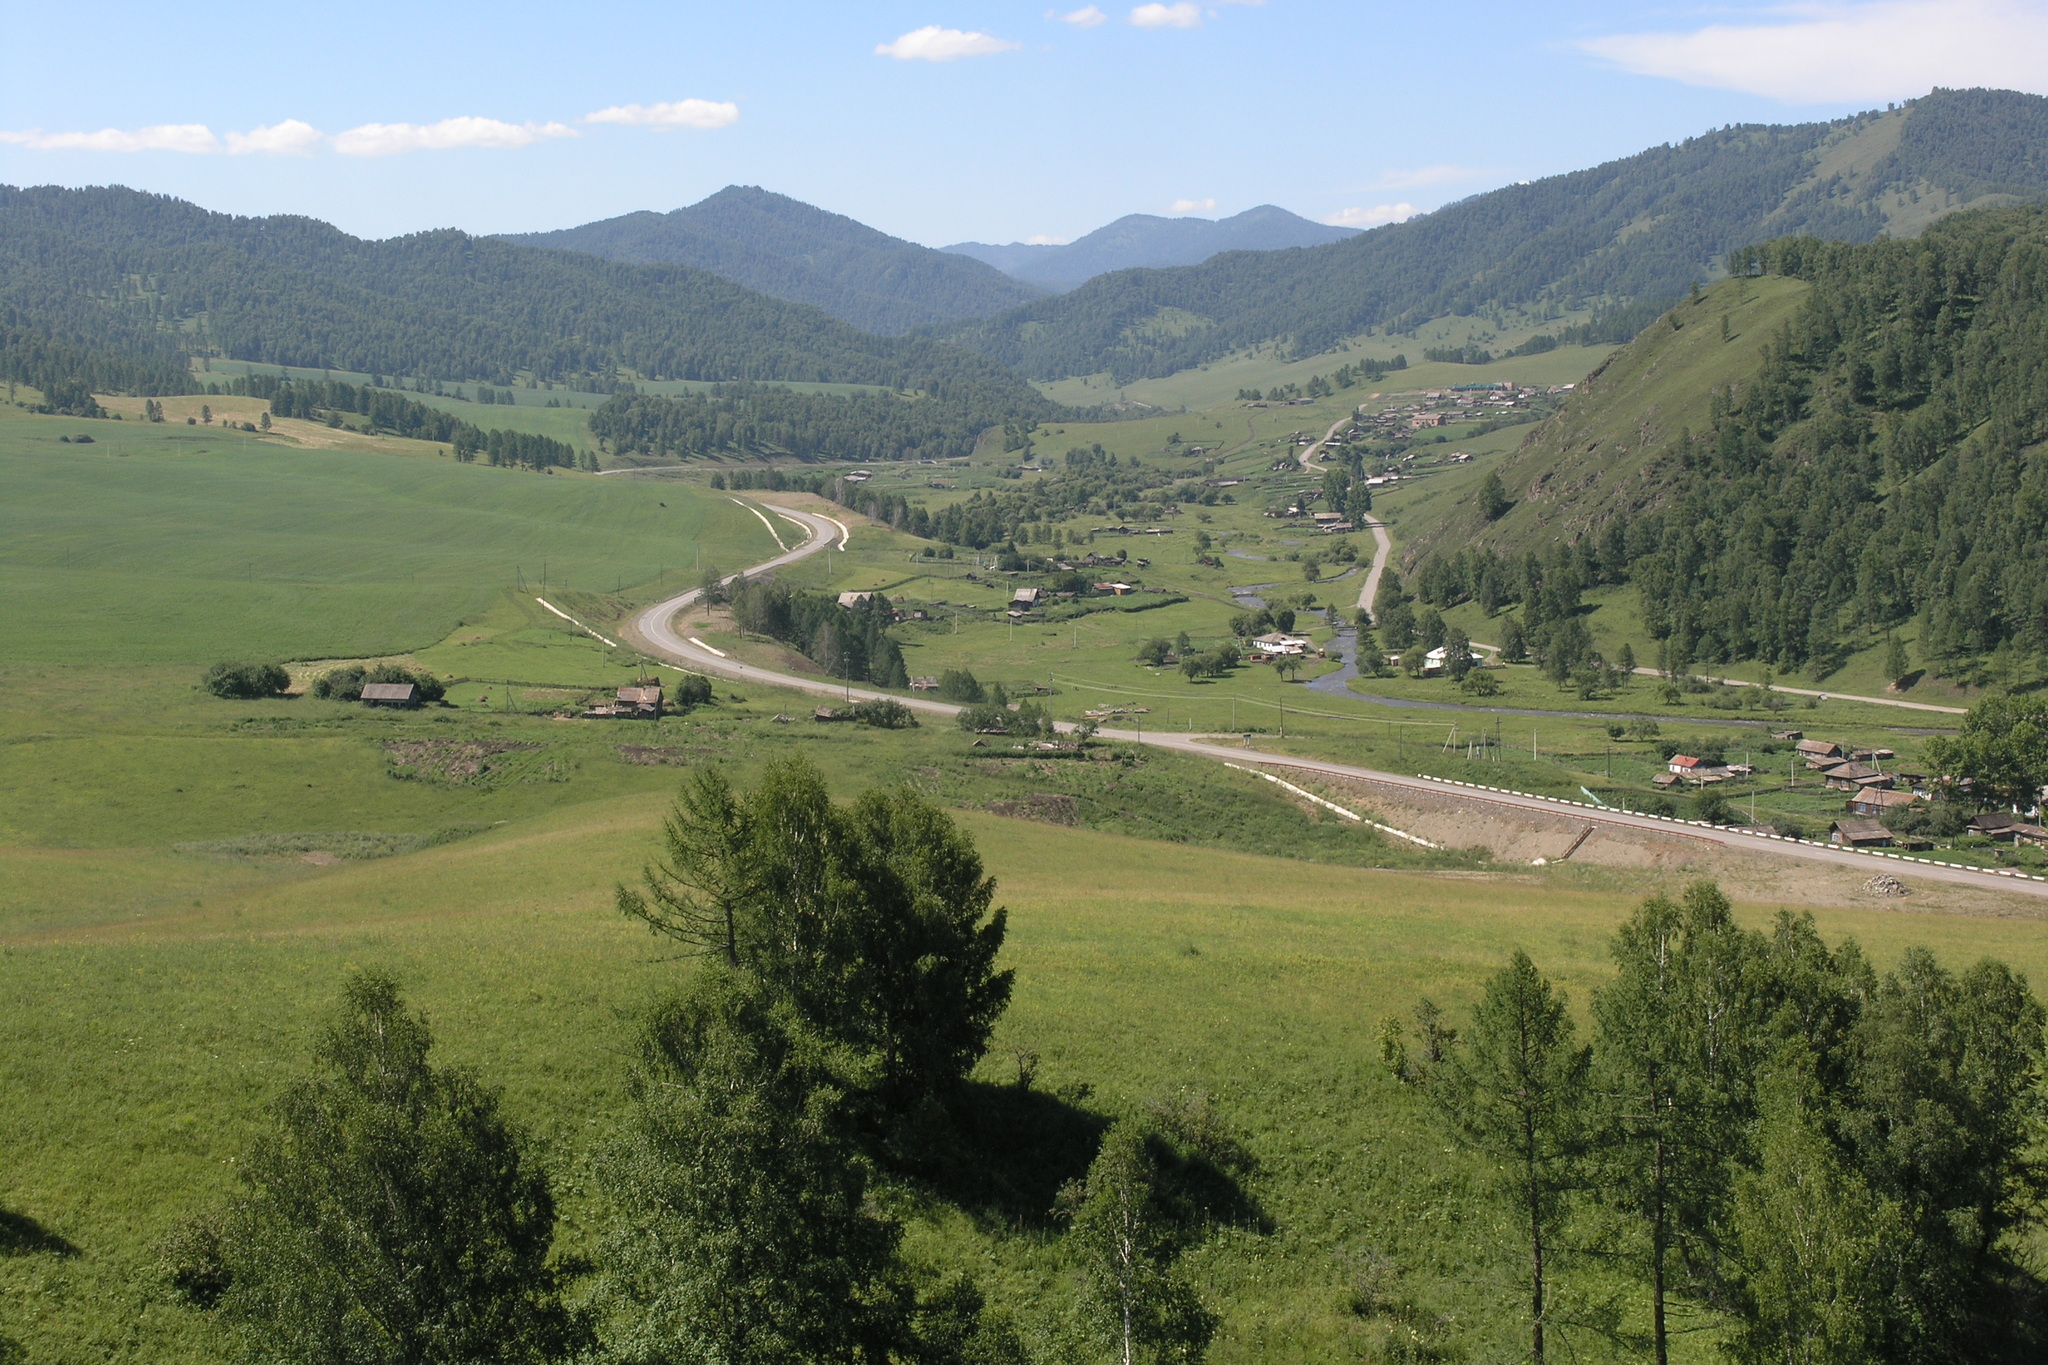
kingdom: Plantae
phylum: Tracheophyta
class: Pinopsida
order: Pinales
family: Pinaceae
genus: Larix
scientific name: Larix sibirica
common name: Siberian larch
